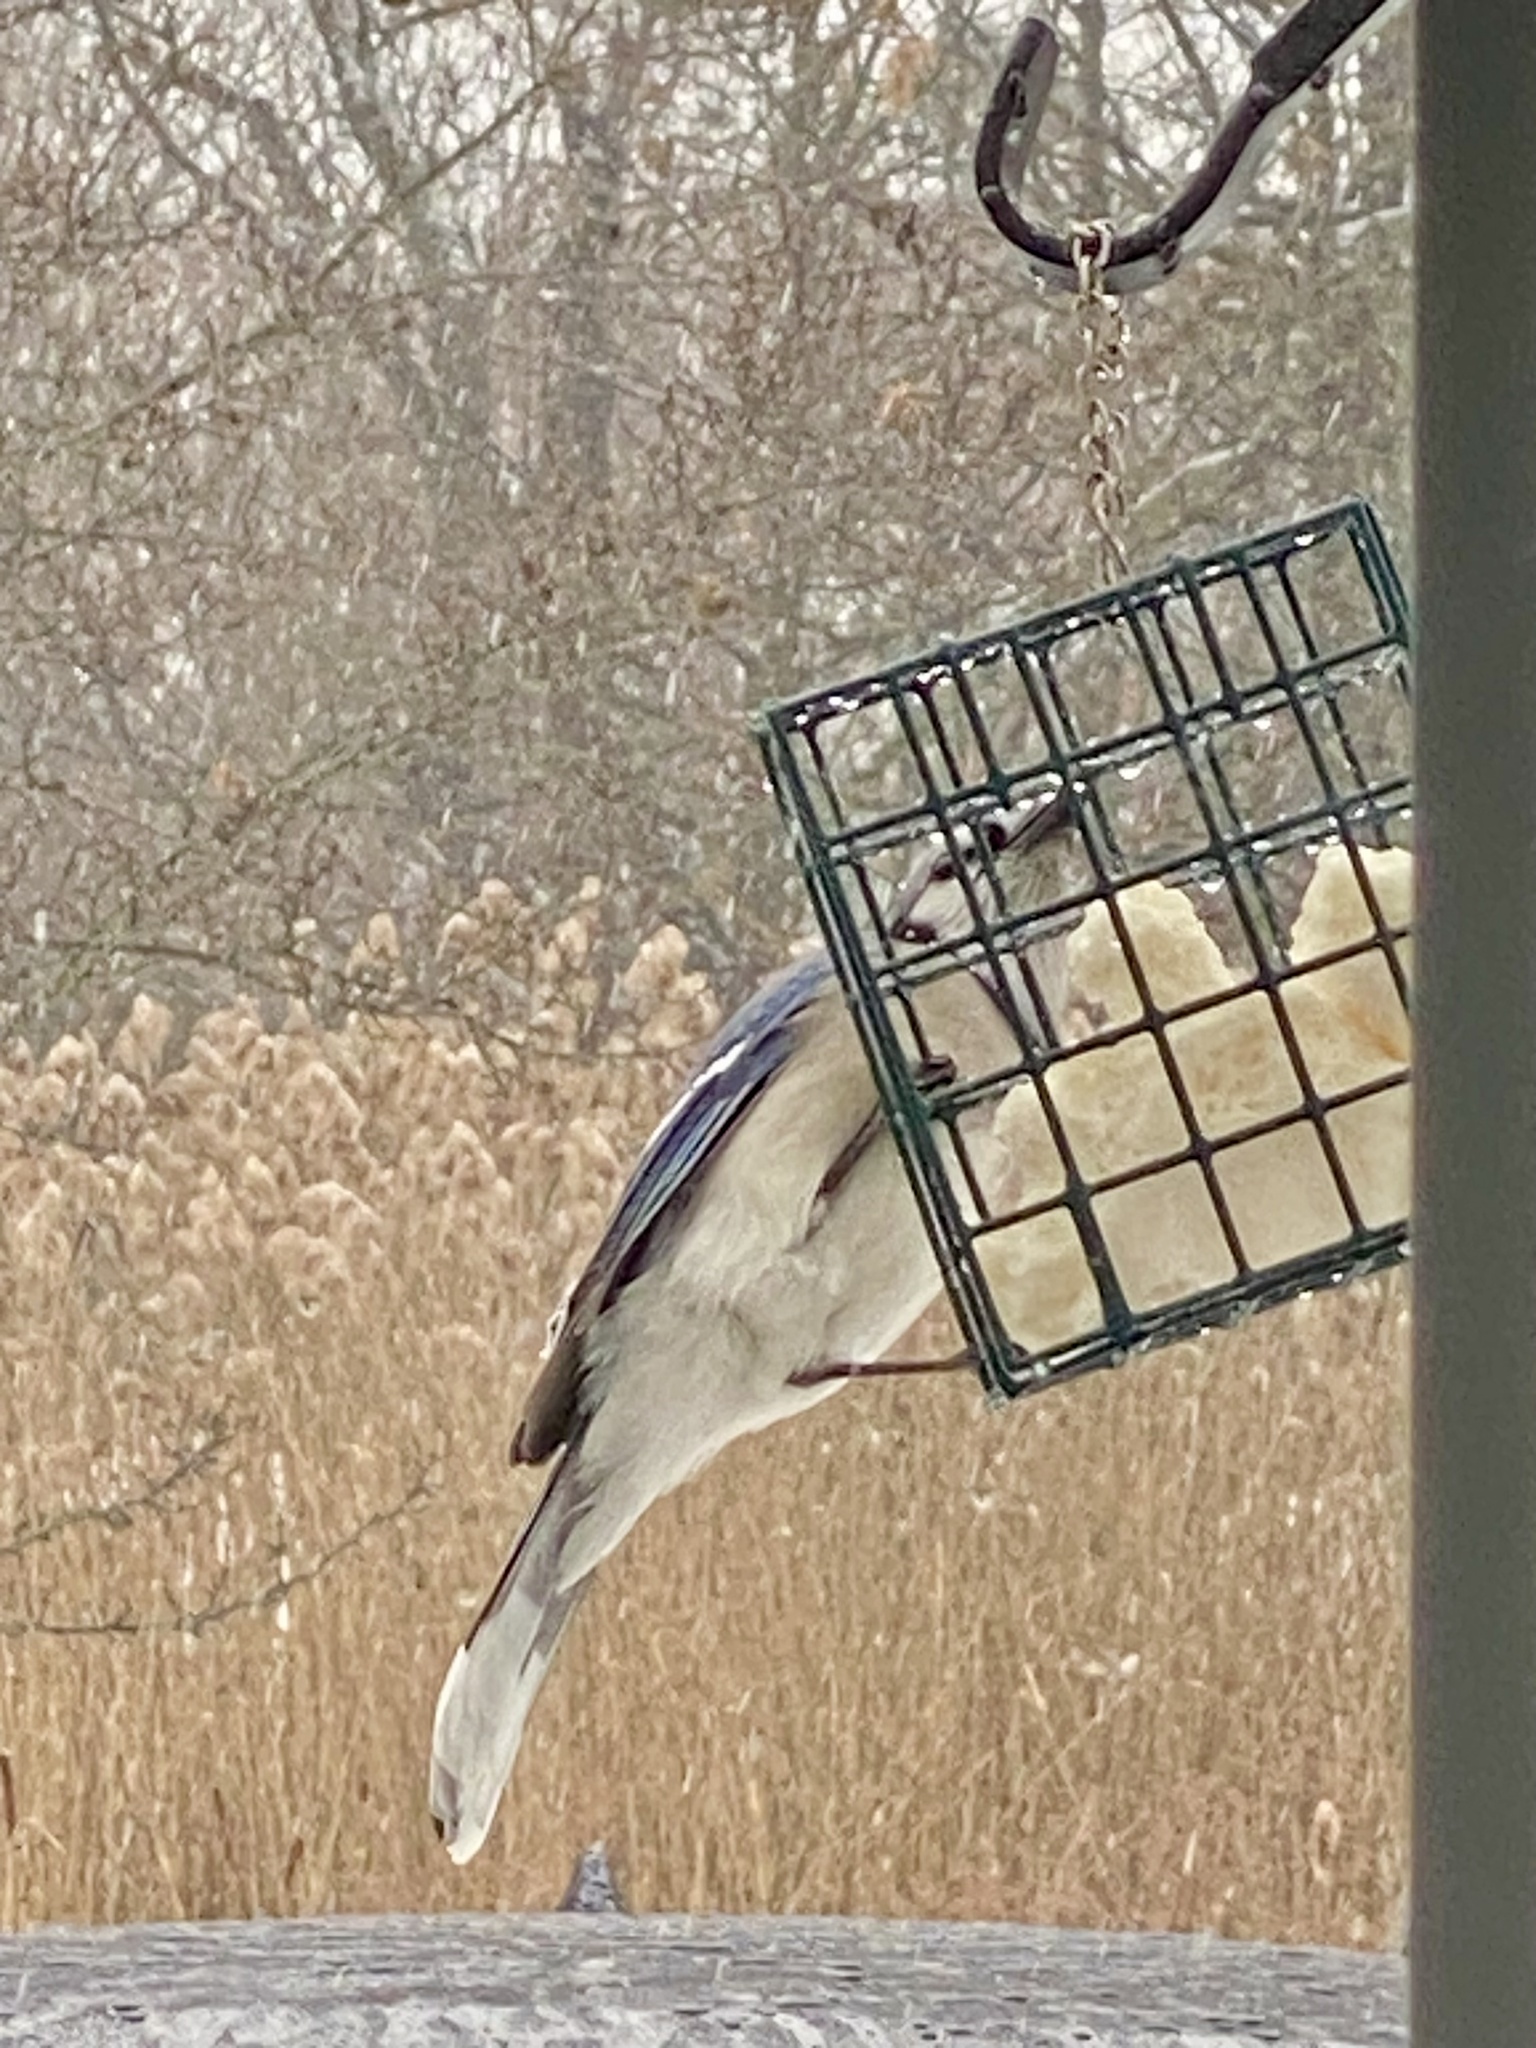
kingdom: Animalia
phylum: Chordata
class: Aves
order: Passeriformes
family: Corvidae
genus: Cyanocitta
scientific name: Cyanocitta cristata
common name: Blue jay
